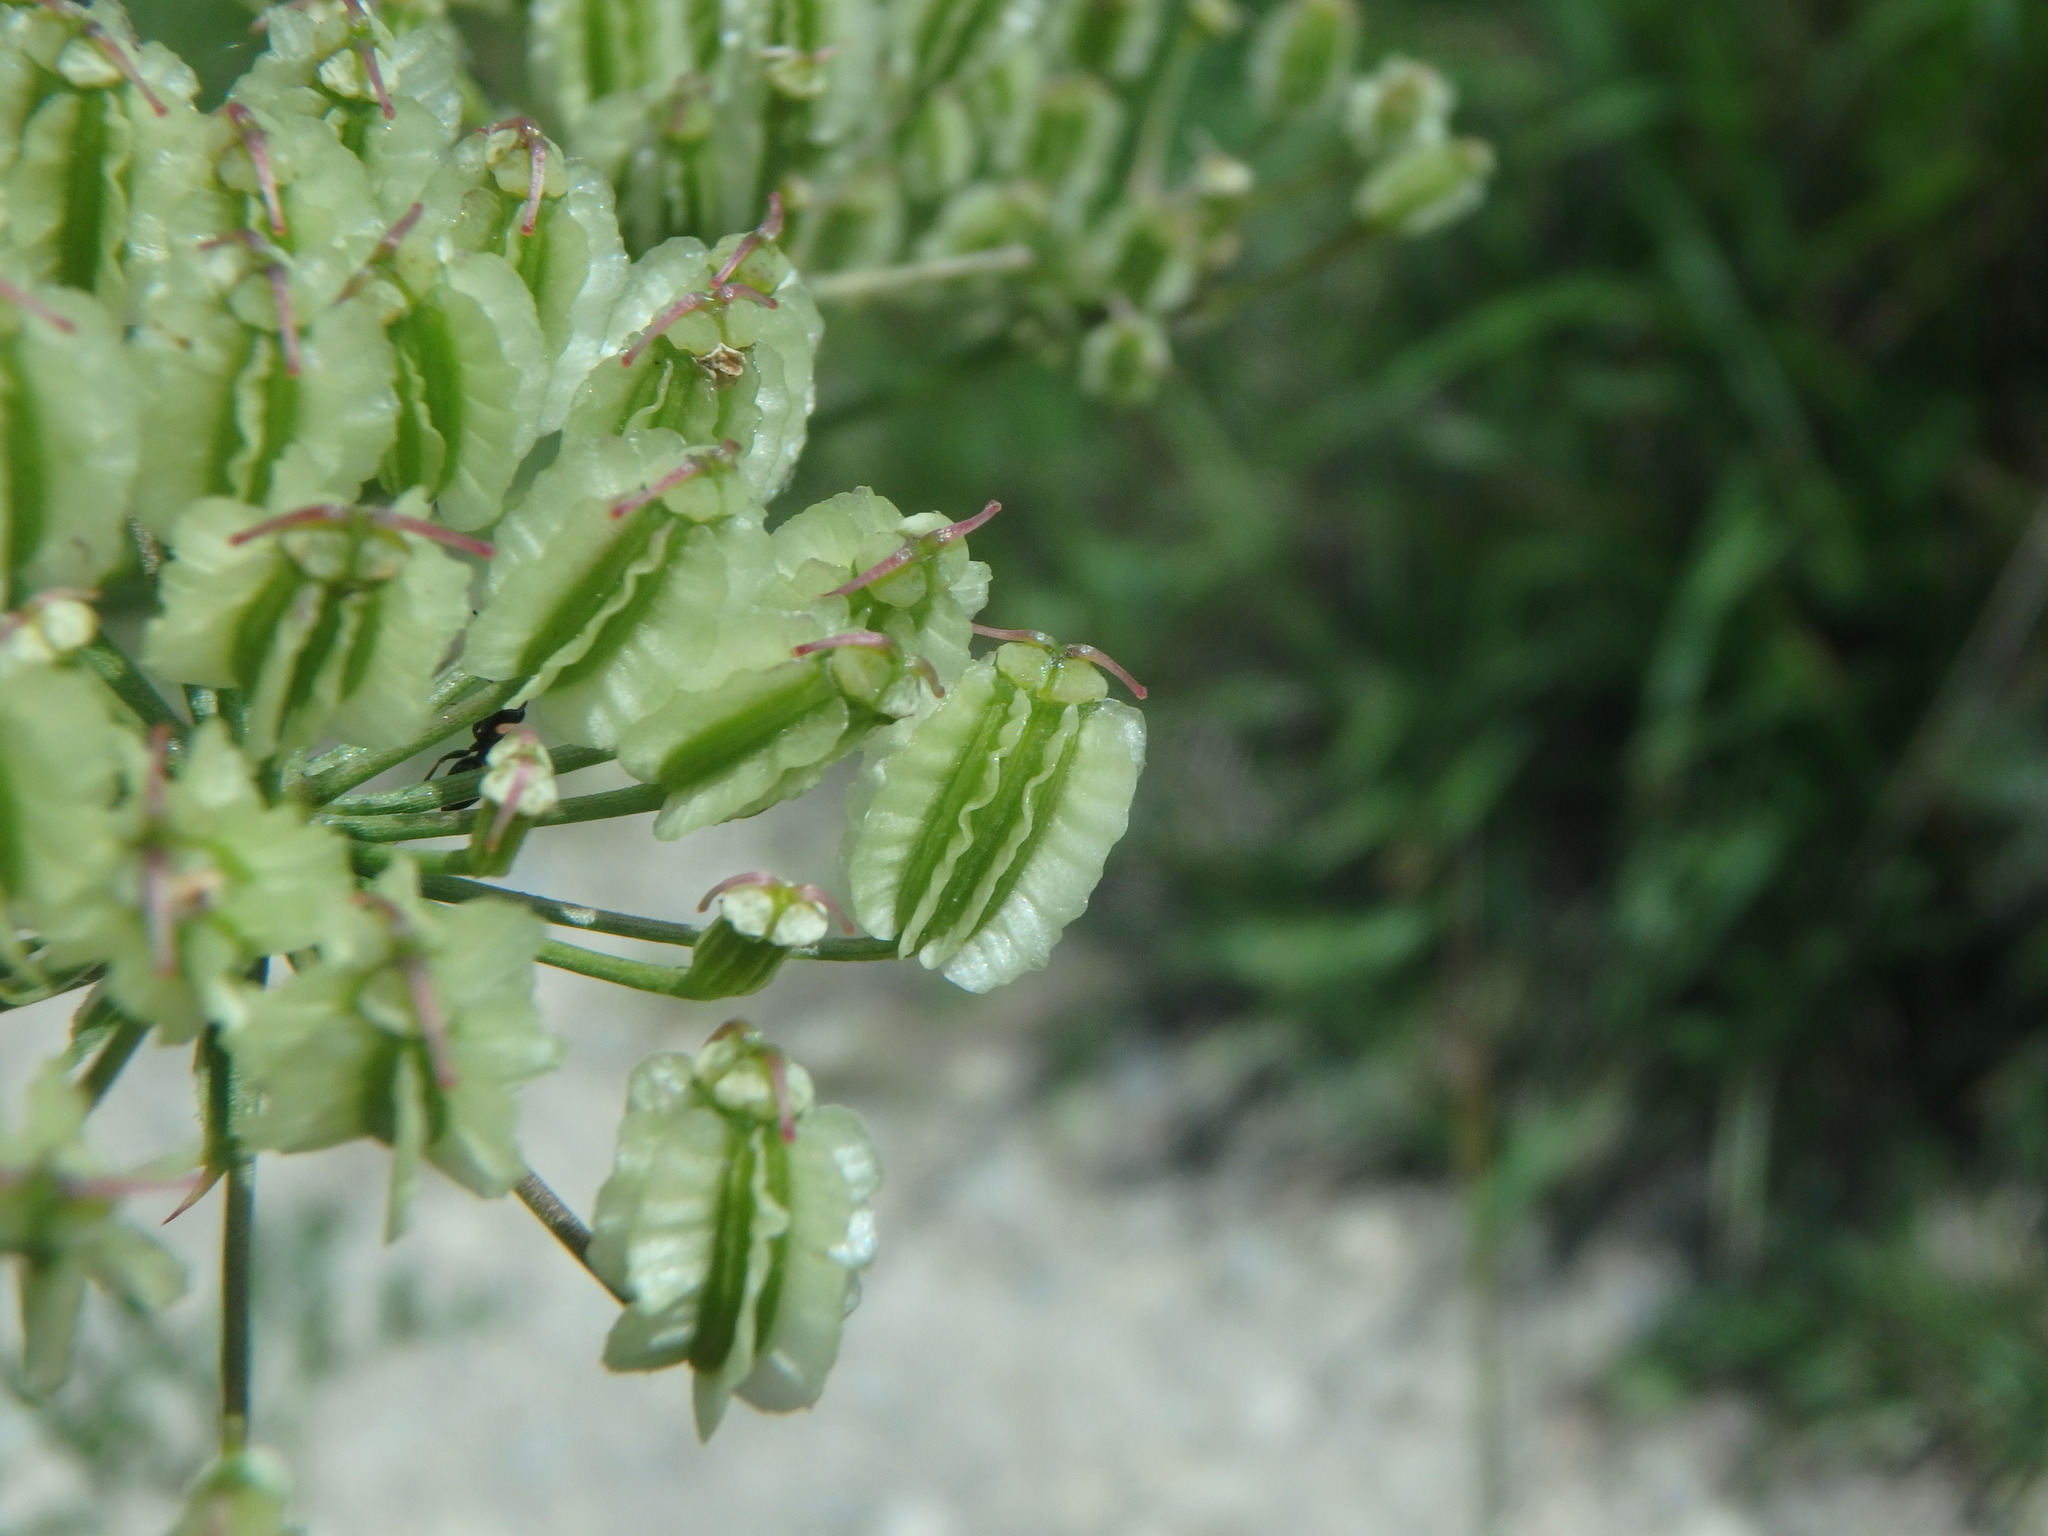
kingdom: Plantae
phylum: Tracheophyta
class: Magnoliopsida
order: Apiales
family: Apiaceae
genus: Laserpitium
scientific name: Laserpitium gallicum
